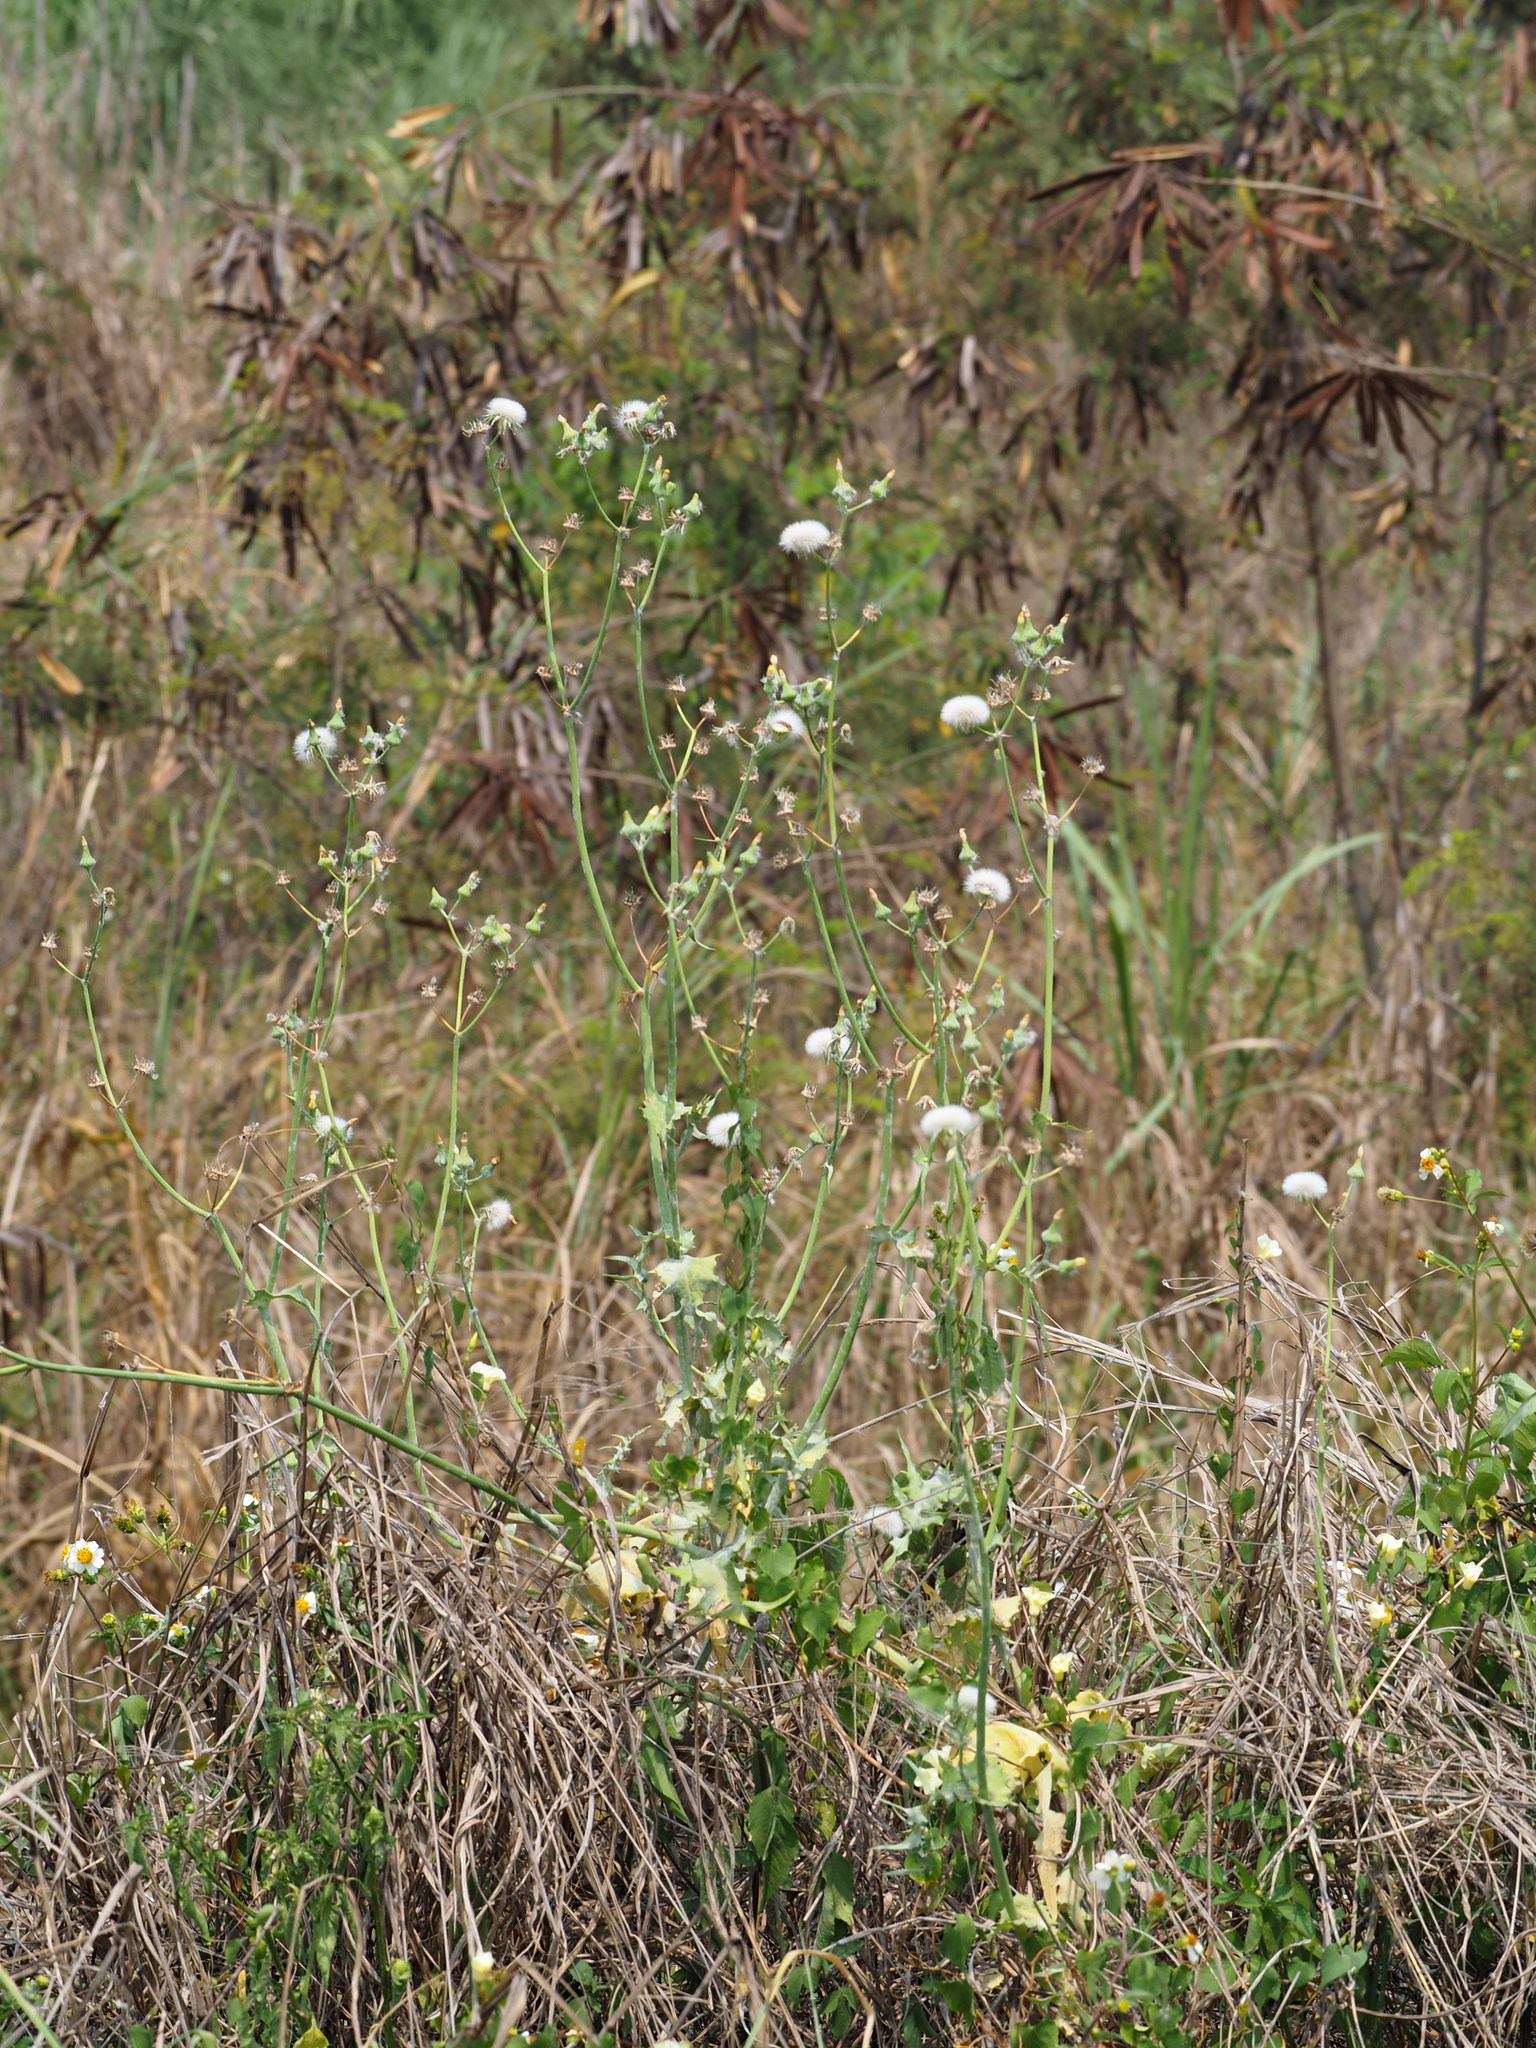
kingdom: Plantae
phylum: Tracheophyta
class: Magnoliopsida
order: Asterales
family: Asteraceae
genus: Sonchus
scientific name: Sonchus oleraceus
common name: Common sowthistle
